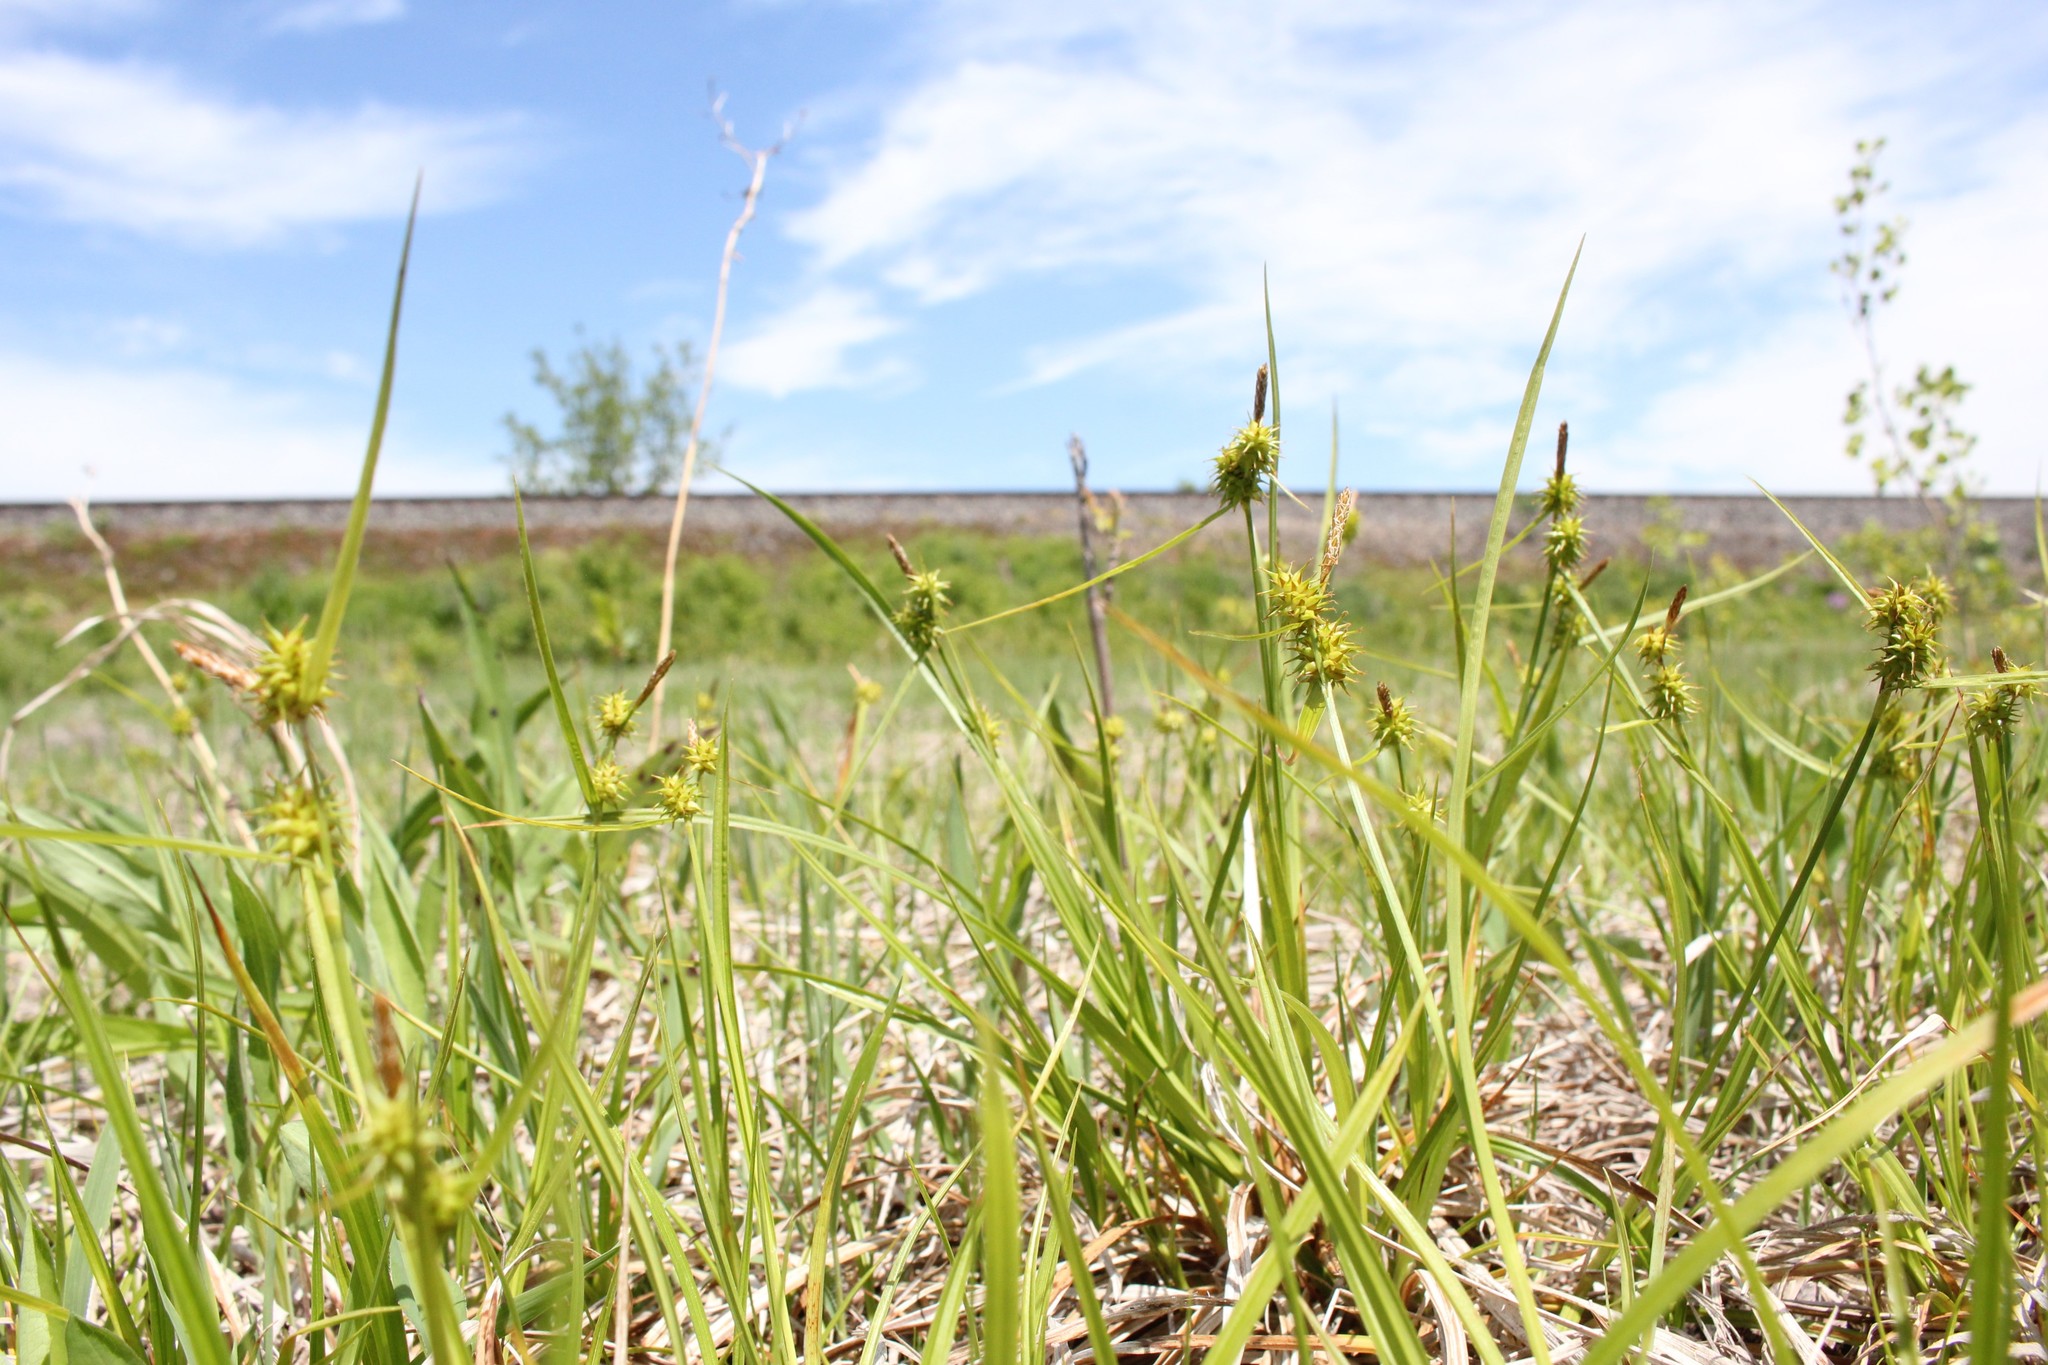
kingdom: Plantae
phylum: Tracheophyta
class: Liliopsida
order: Poales
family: Cyperaceae
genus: Carex
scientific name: Carex flava
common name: Large yellow-sedge
